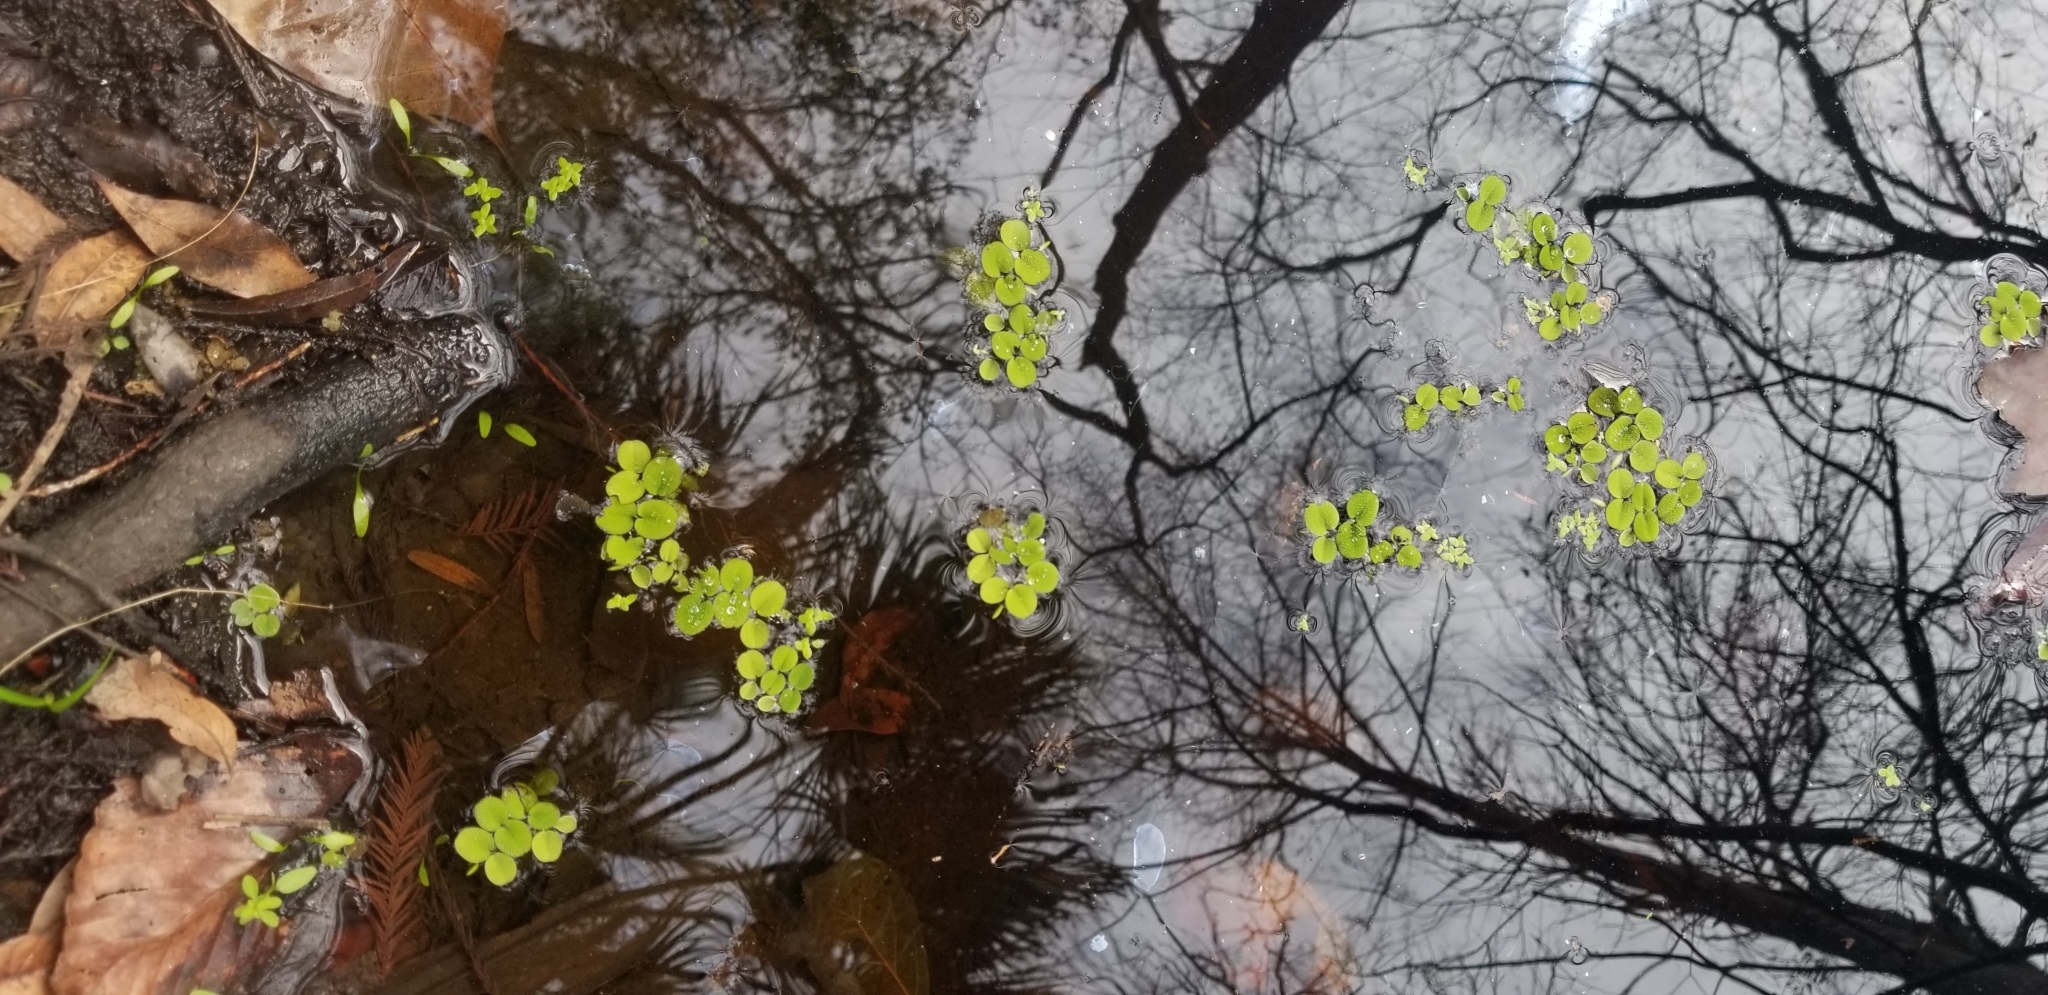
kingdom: Plantae
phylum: Tracheophyta
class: Polypodiopsida
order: Salviniales
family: Salviniaceae
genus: Salvinia
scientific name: Salvinia minima
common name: Water spangles
